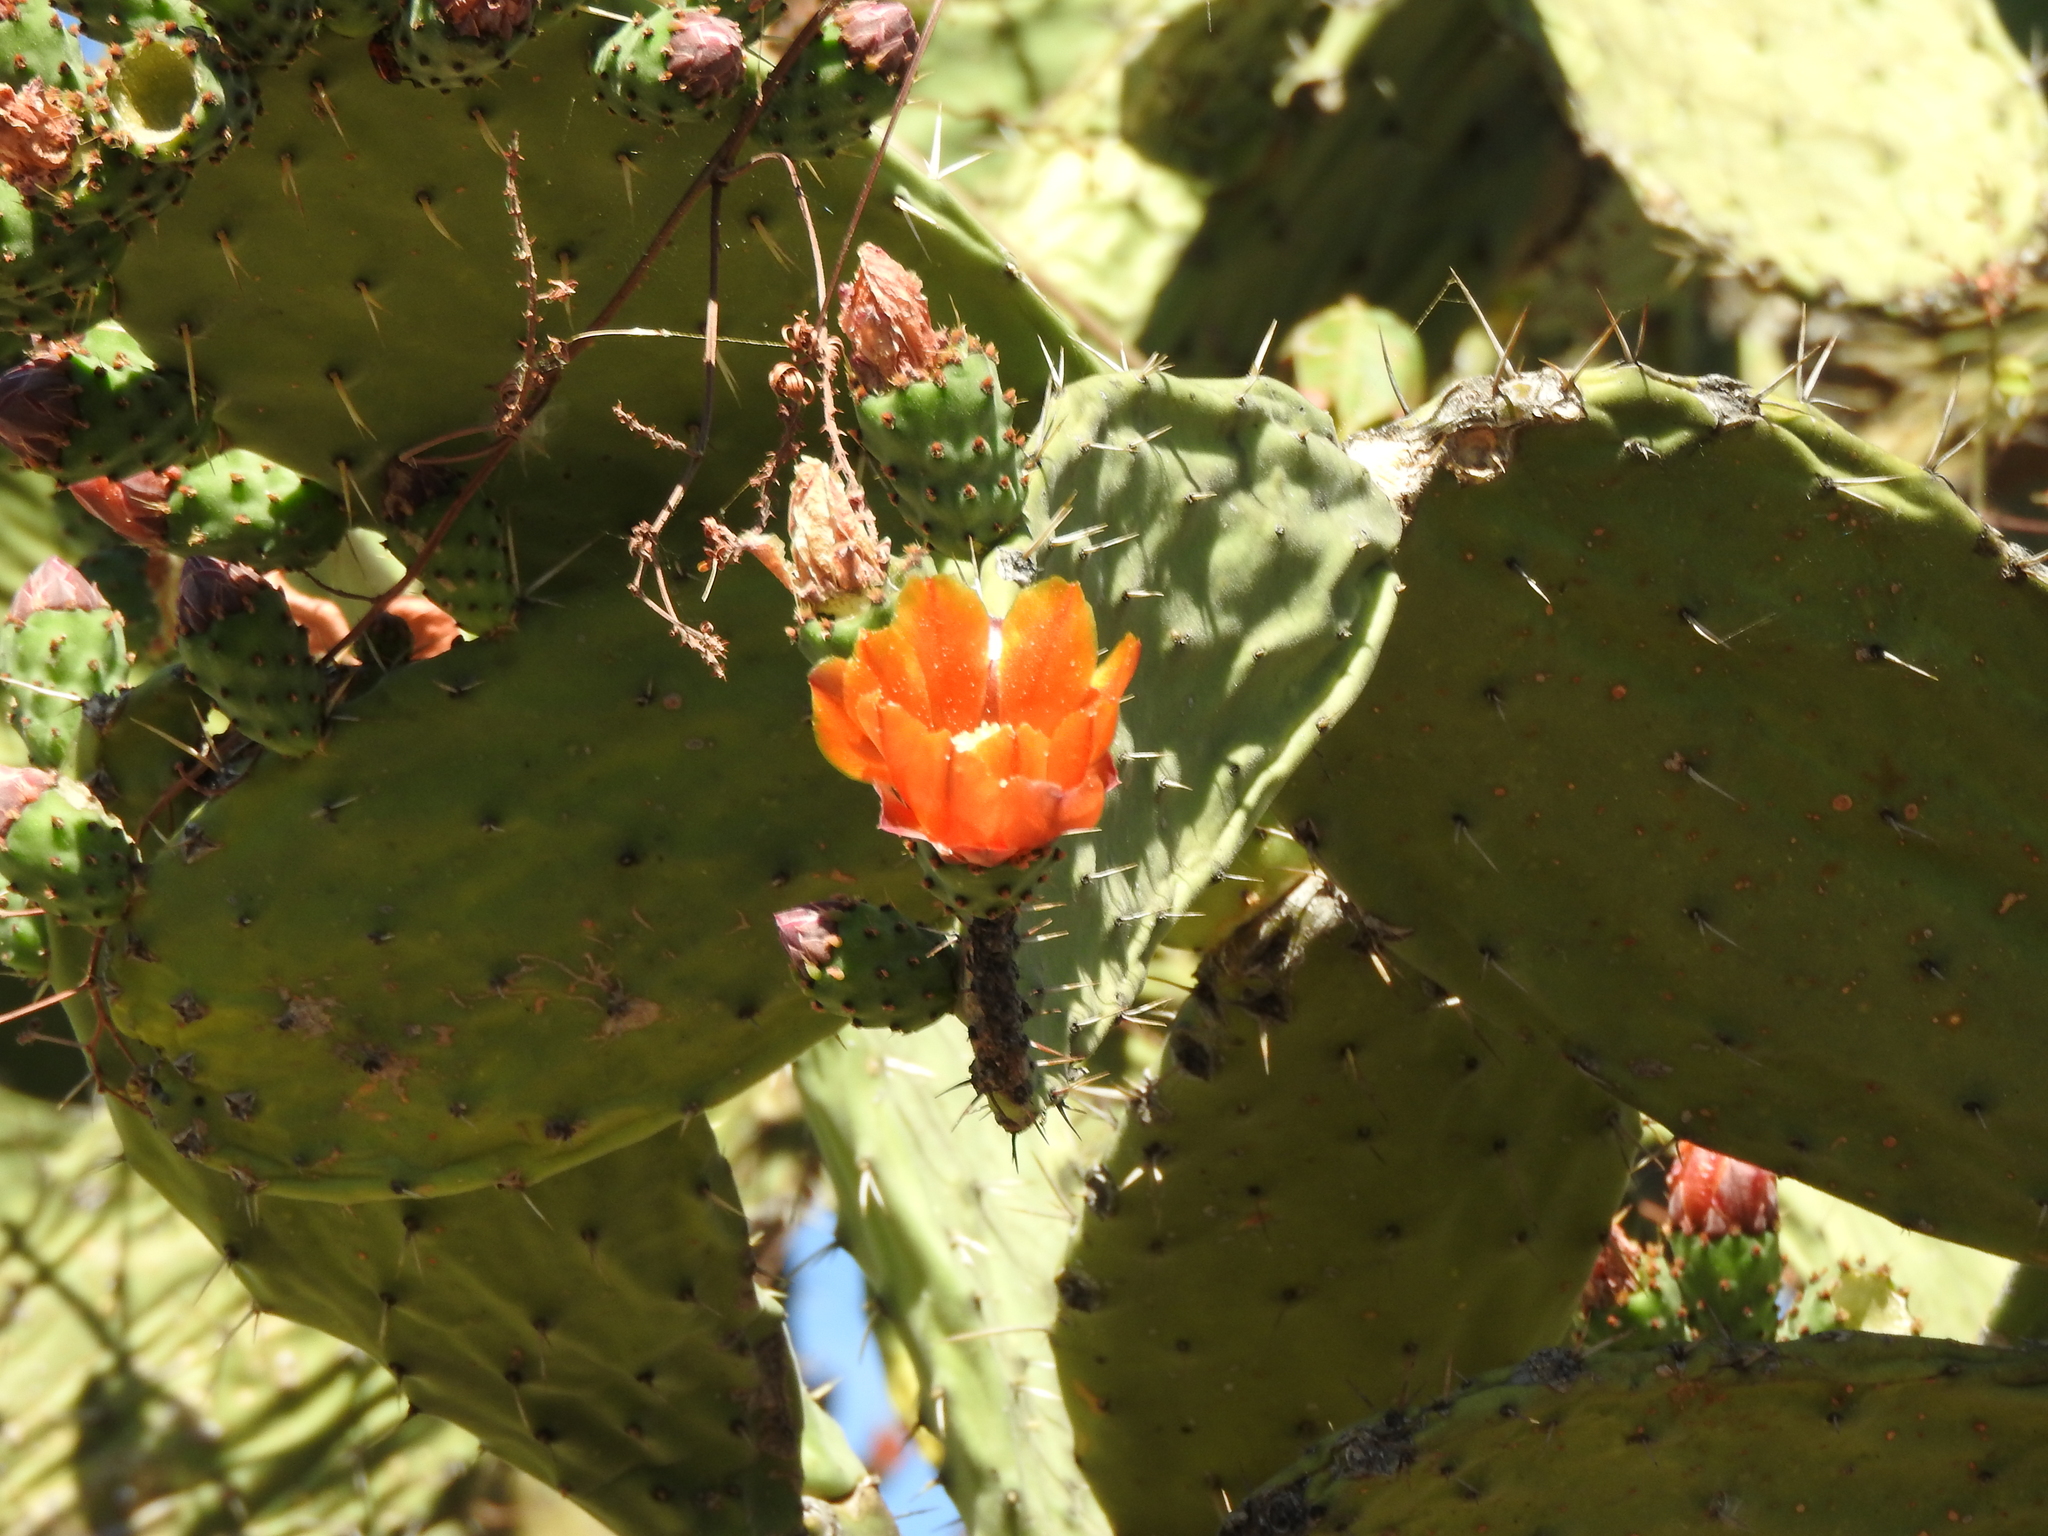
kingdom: Plantae
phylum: Tracheophyta
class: Magnoliopsida
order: Caryophyllales
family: Cactaceae
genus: Opuntia
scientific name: Opuntia tomentosa
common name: Woollyjoint pricklypear
